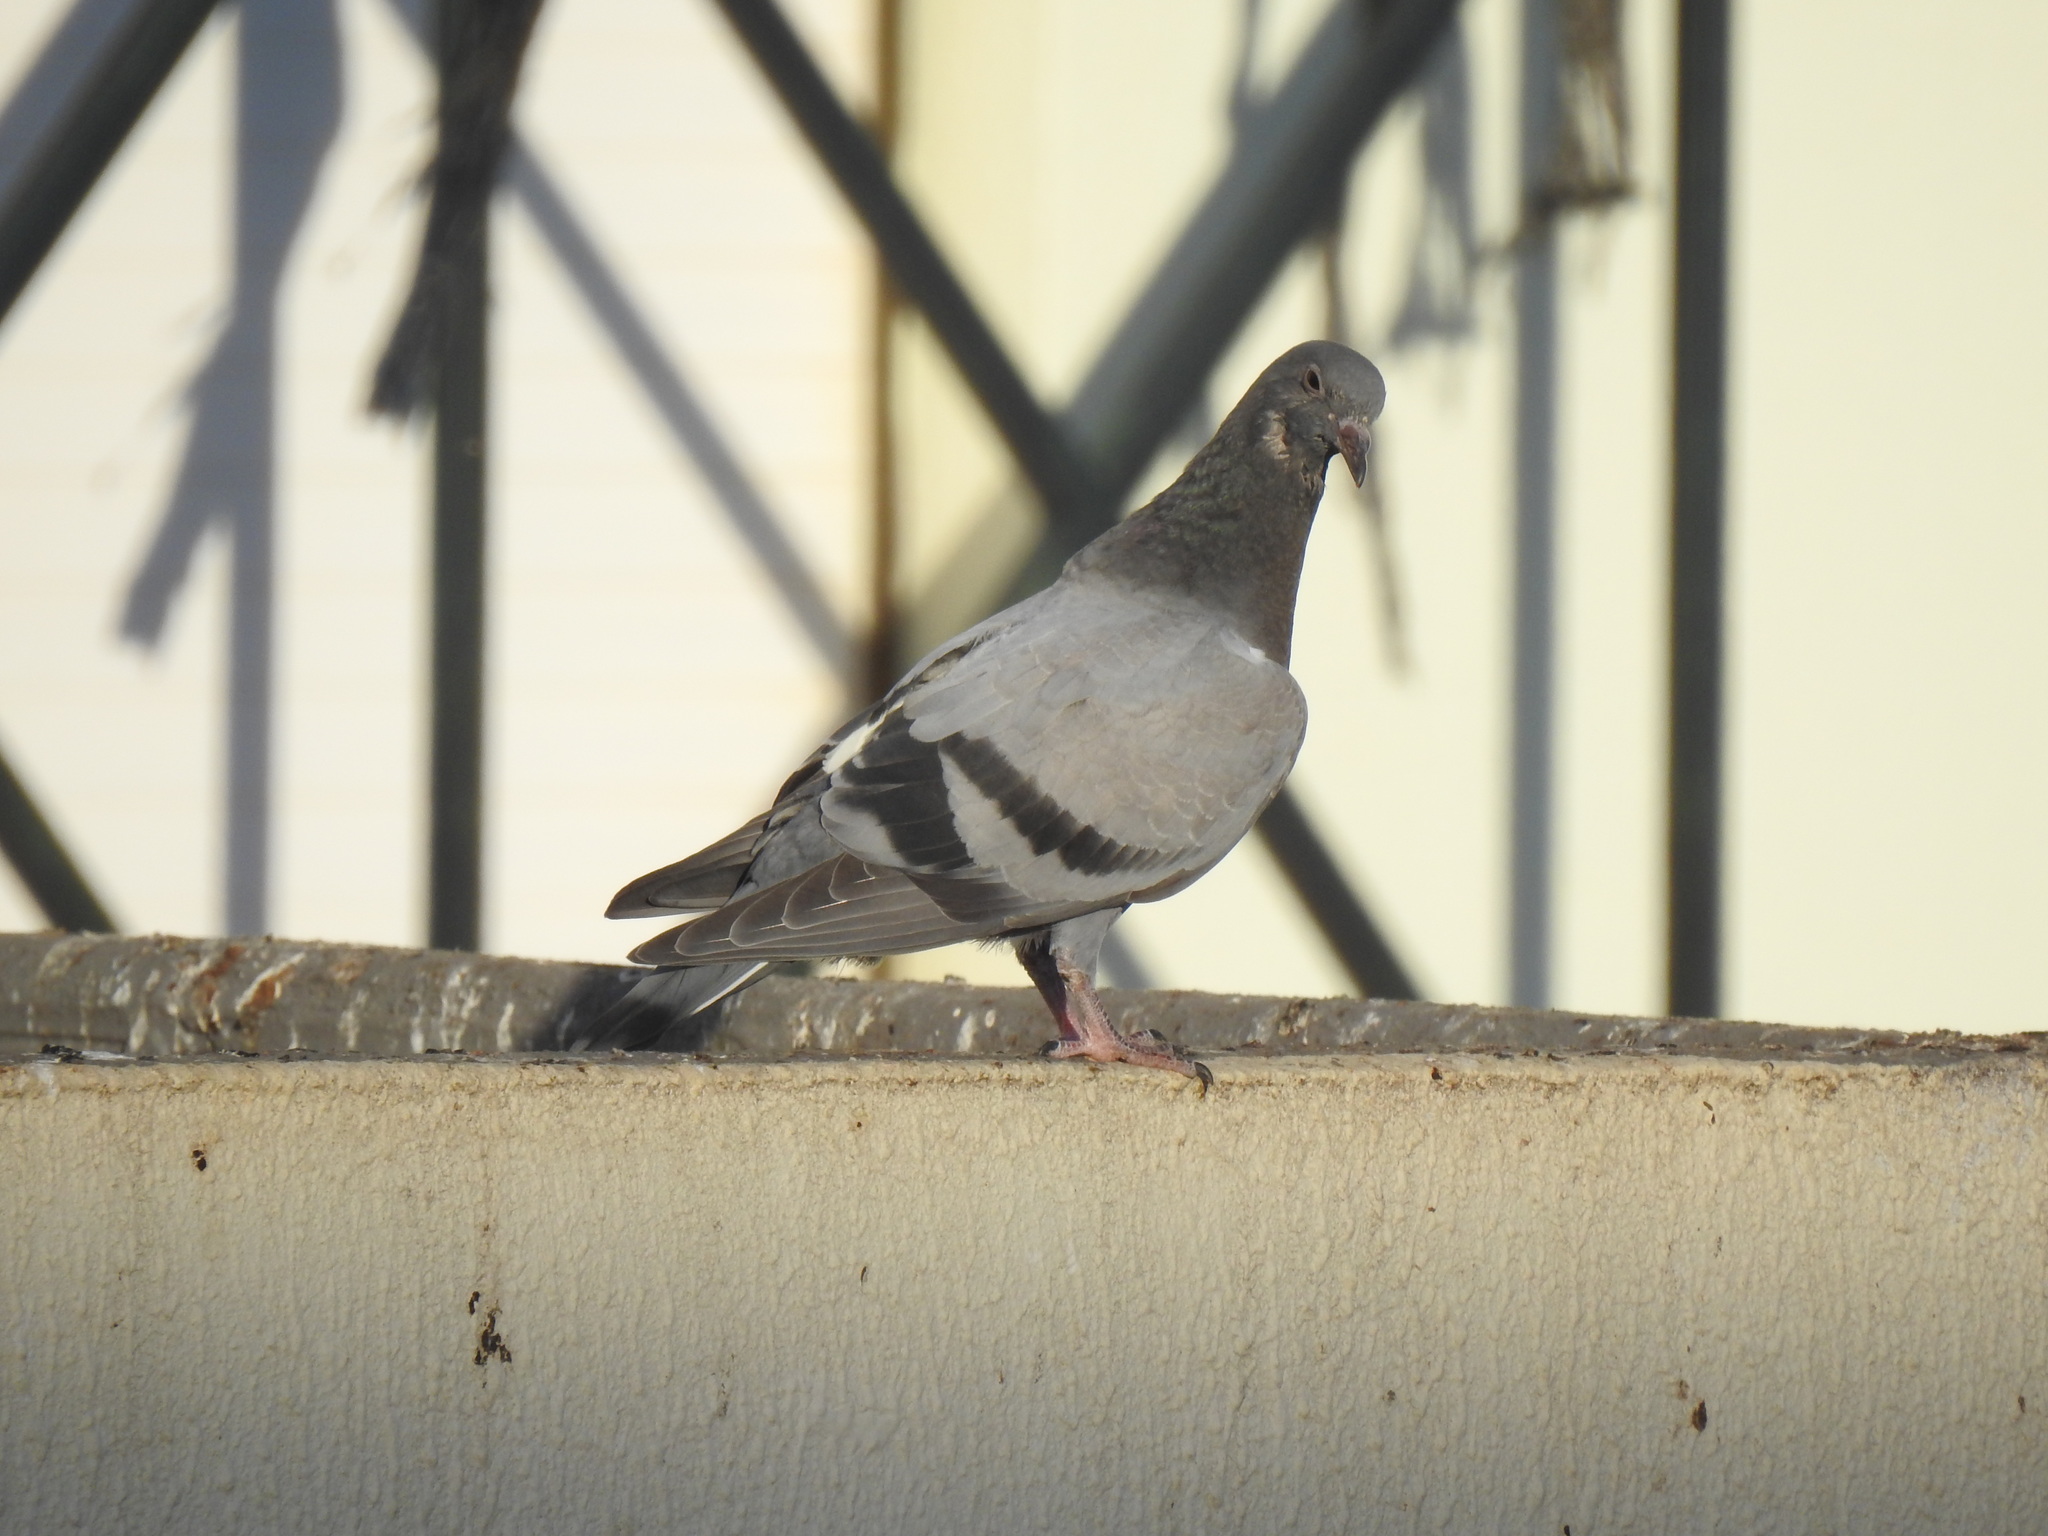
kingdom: Animalia
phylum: Chordata
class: Aves
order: Columbiformes
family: Columbidae
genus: Columba
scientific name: Columba livia
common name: Rock pigeon
